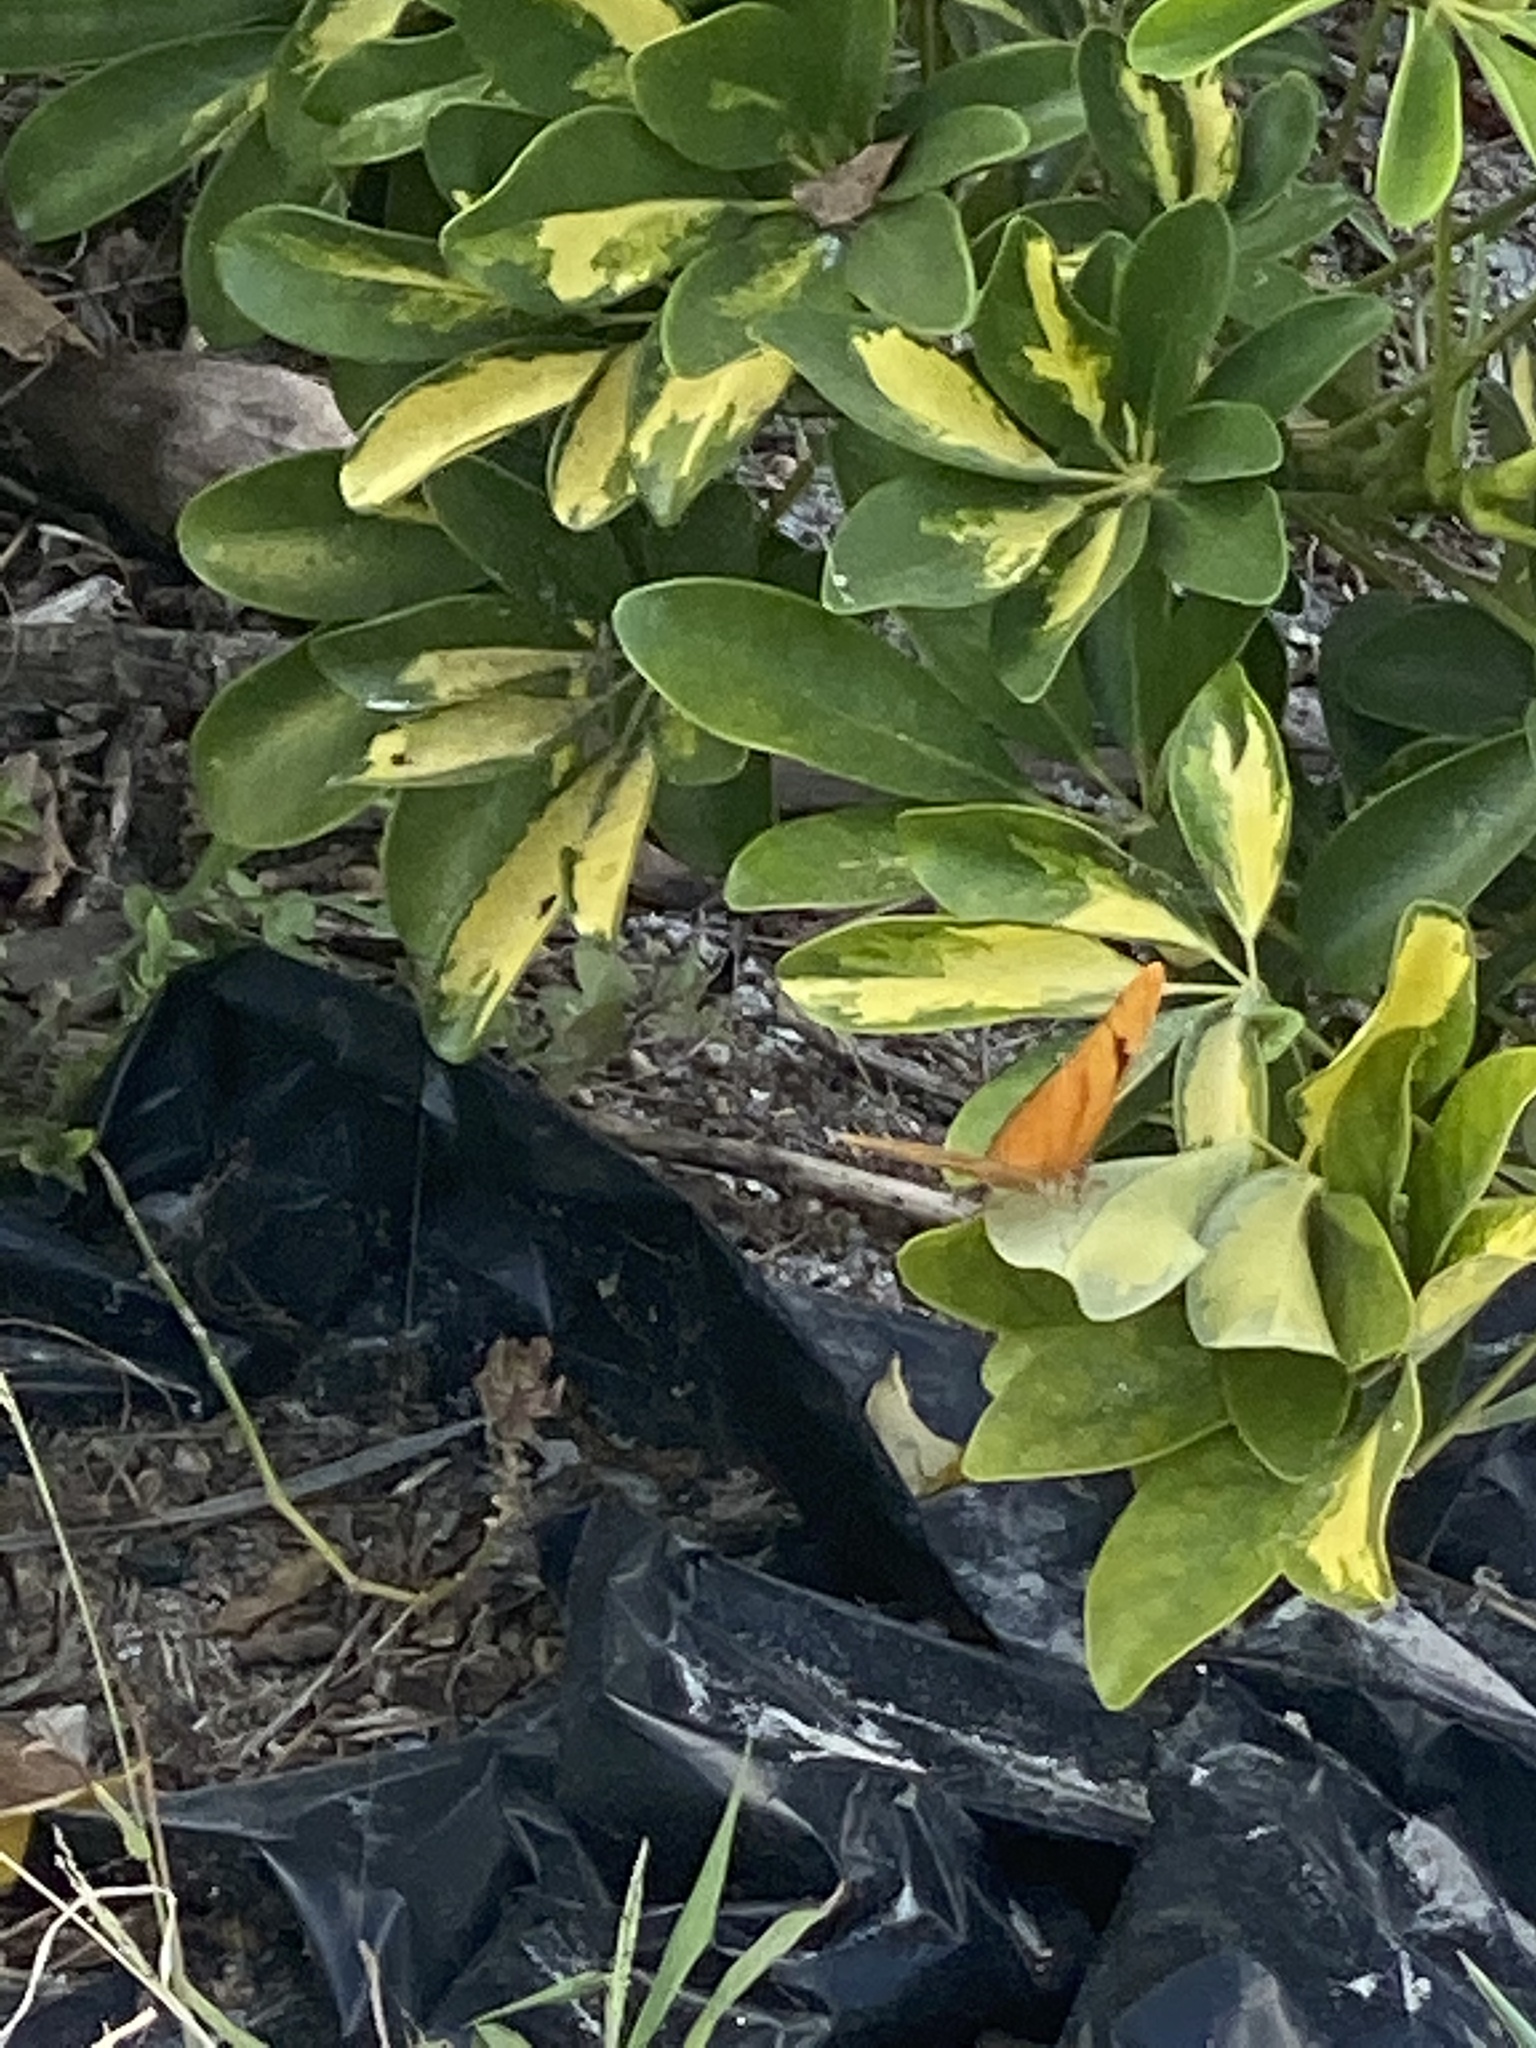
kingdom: Animalia
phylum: Arthropoda
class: Insecta
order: Lepidoptera
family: Nymphalidae
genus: Dryas
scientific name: Dryas iulia
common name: Flambeau
